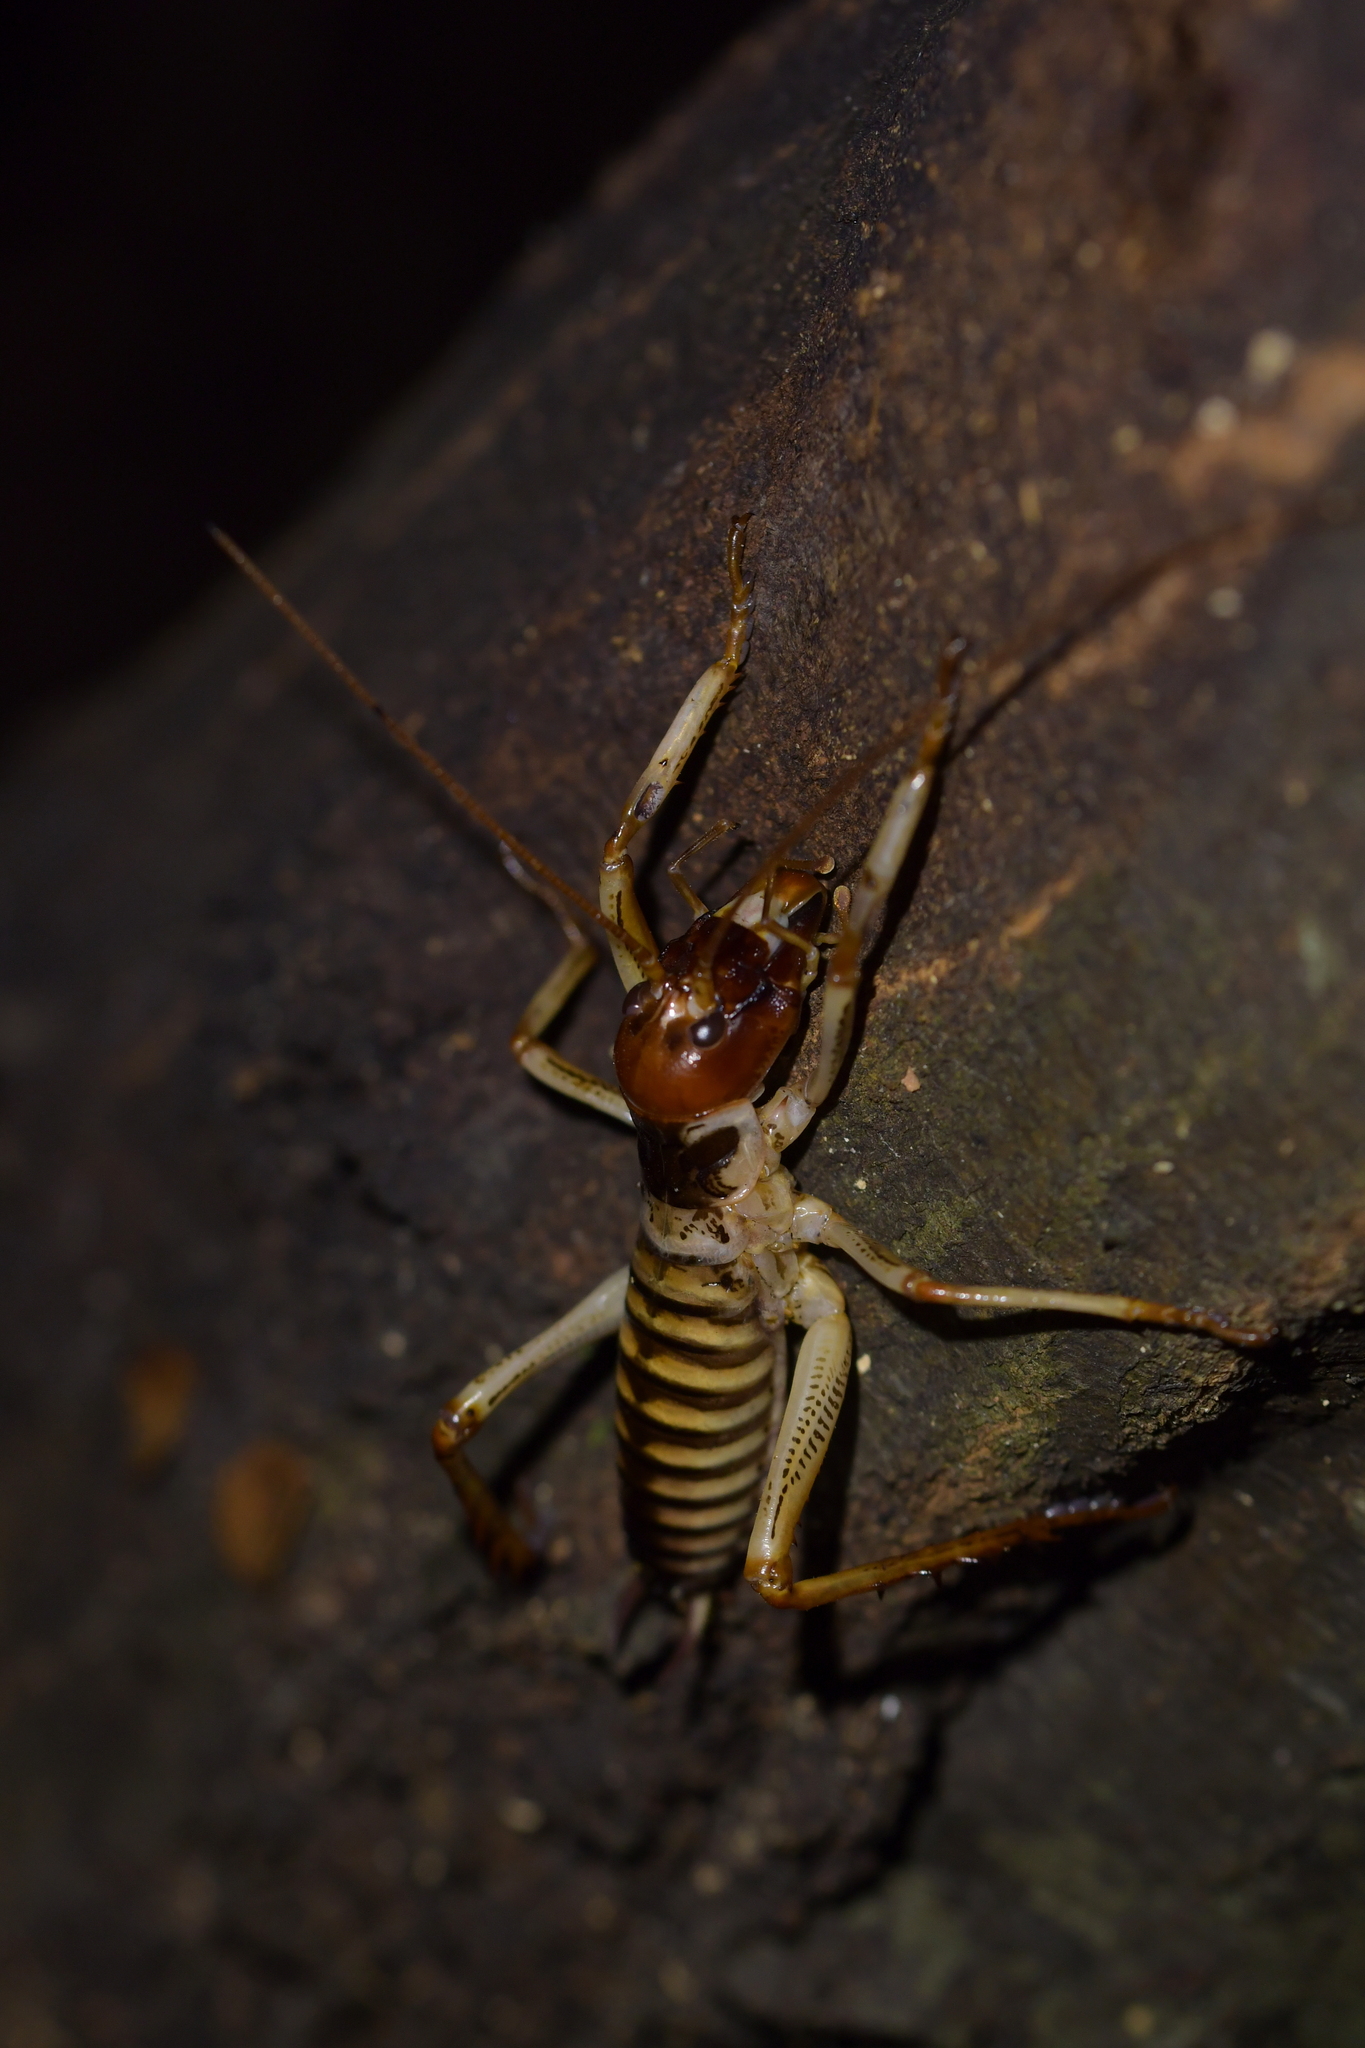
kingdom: Animalia
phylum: Arthropoda
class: Insecta
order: Orthoptera
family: Anostostomatidae
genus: Hemideina
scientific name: Hemideina crassidens
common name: Wellington tree weta
